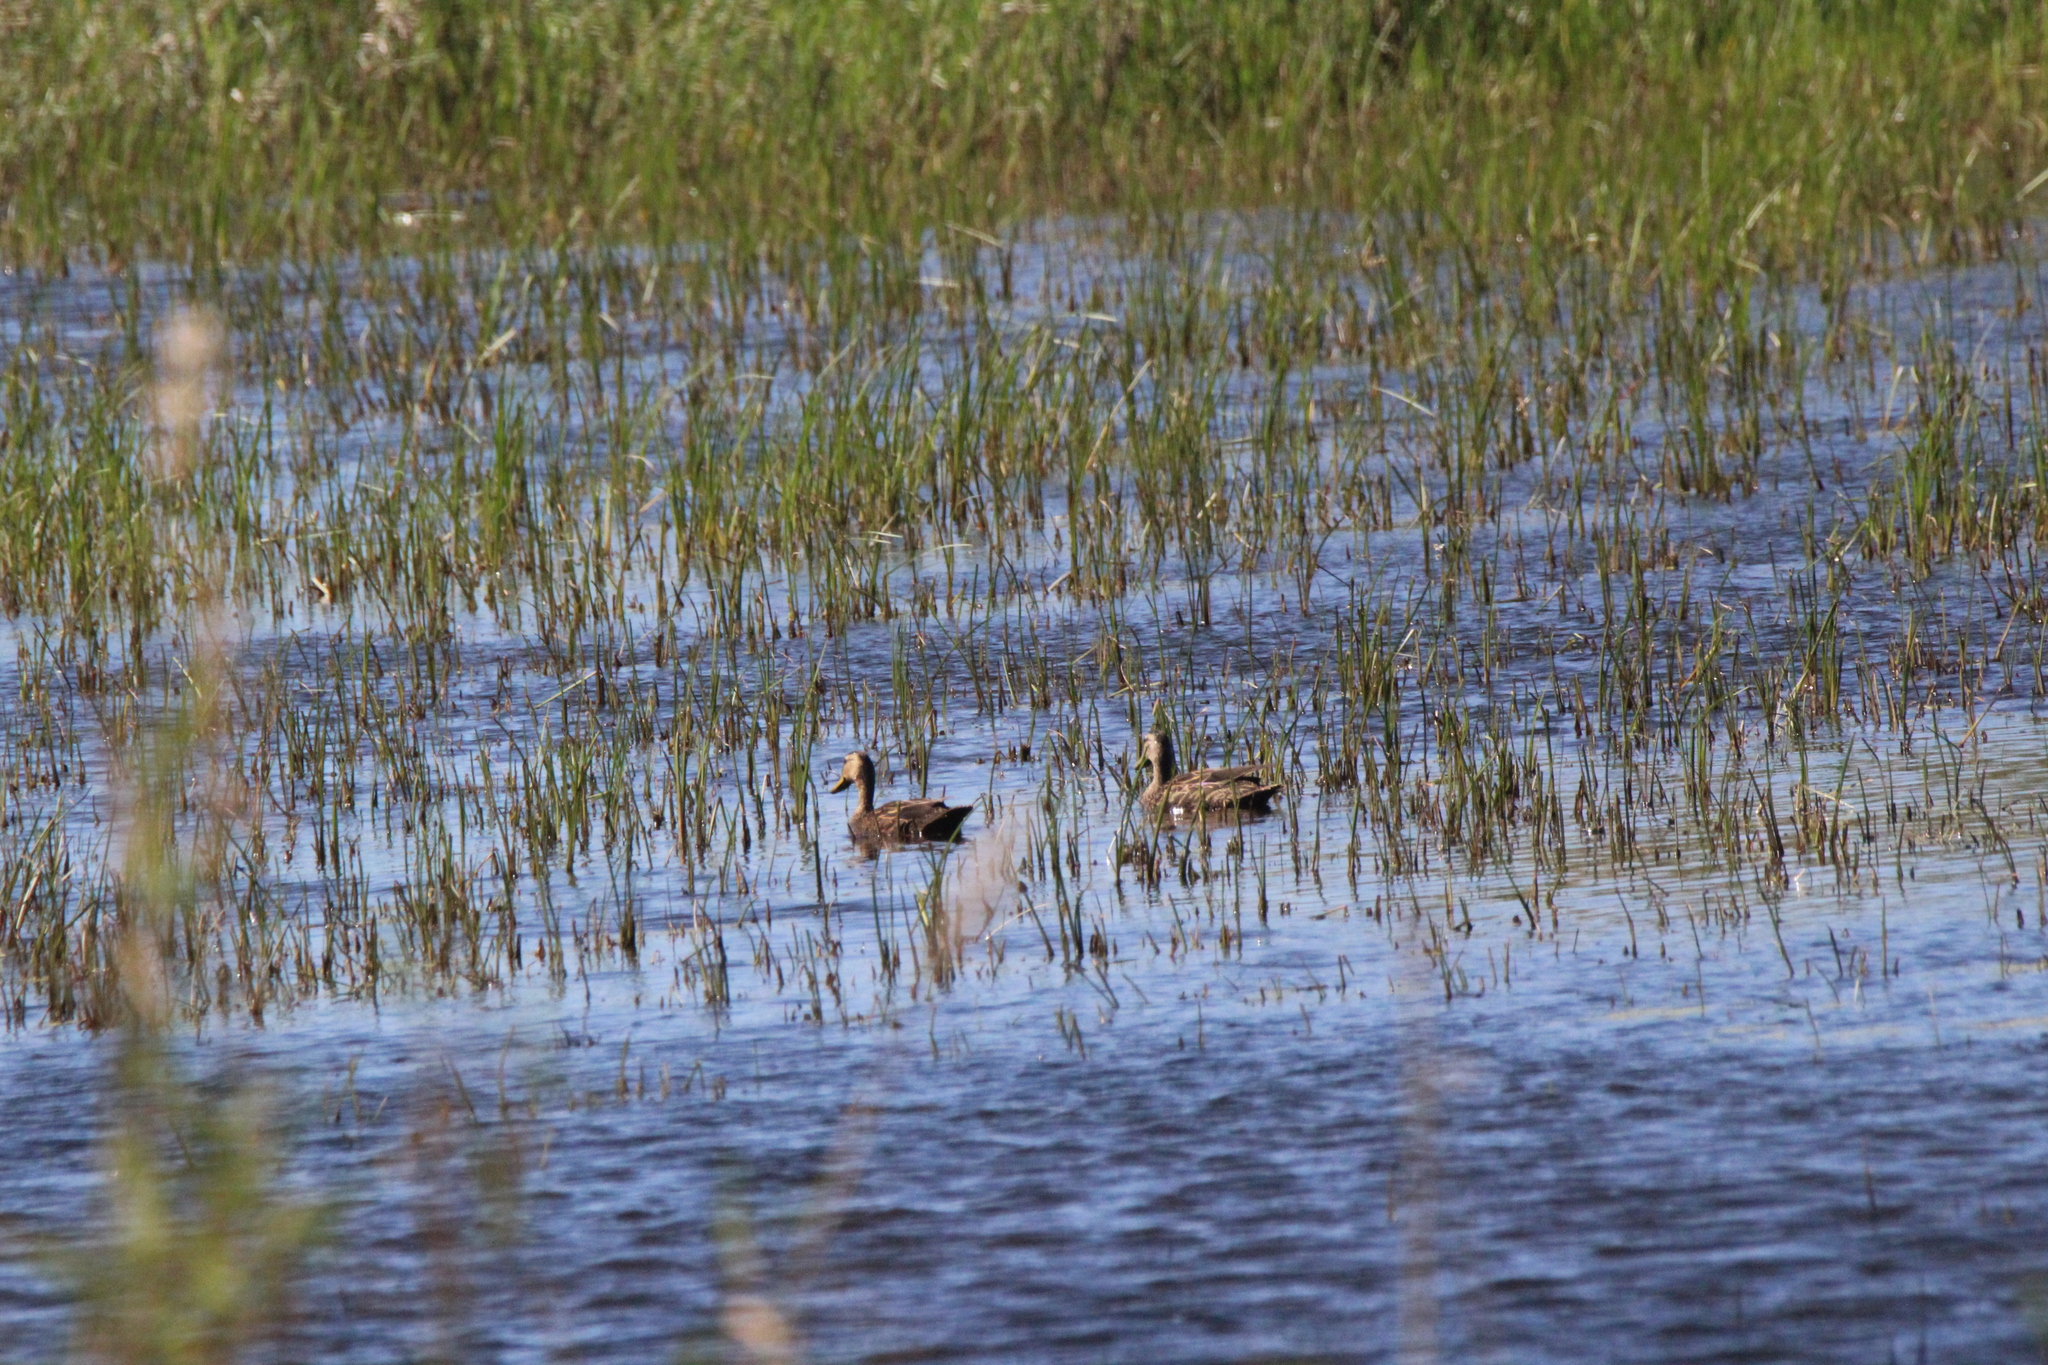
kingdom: Animalia
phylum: Chordata
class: Aves
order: Anseriformes
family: Anatidae
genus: Anas
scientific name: Anas fulvigula
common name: Mottled duck
